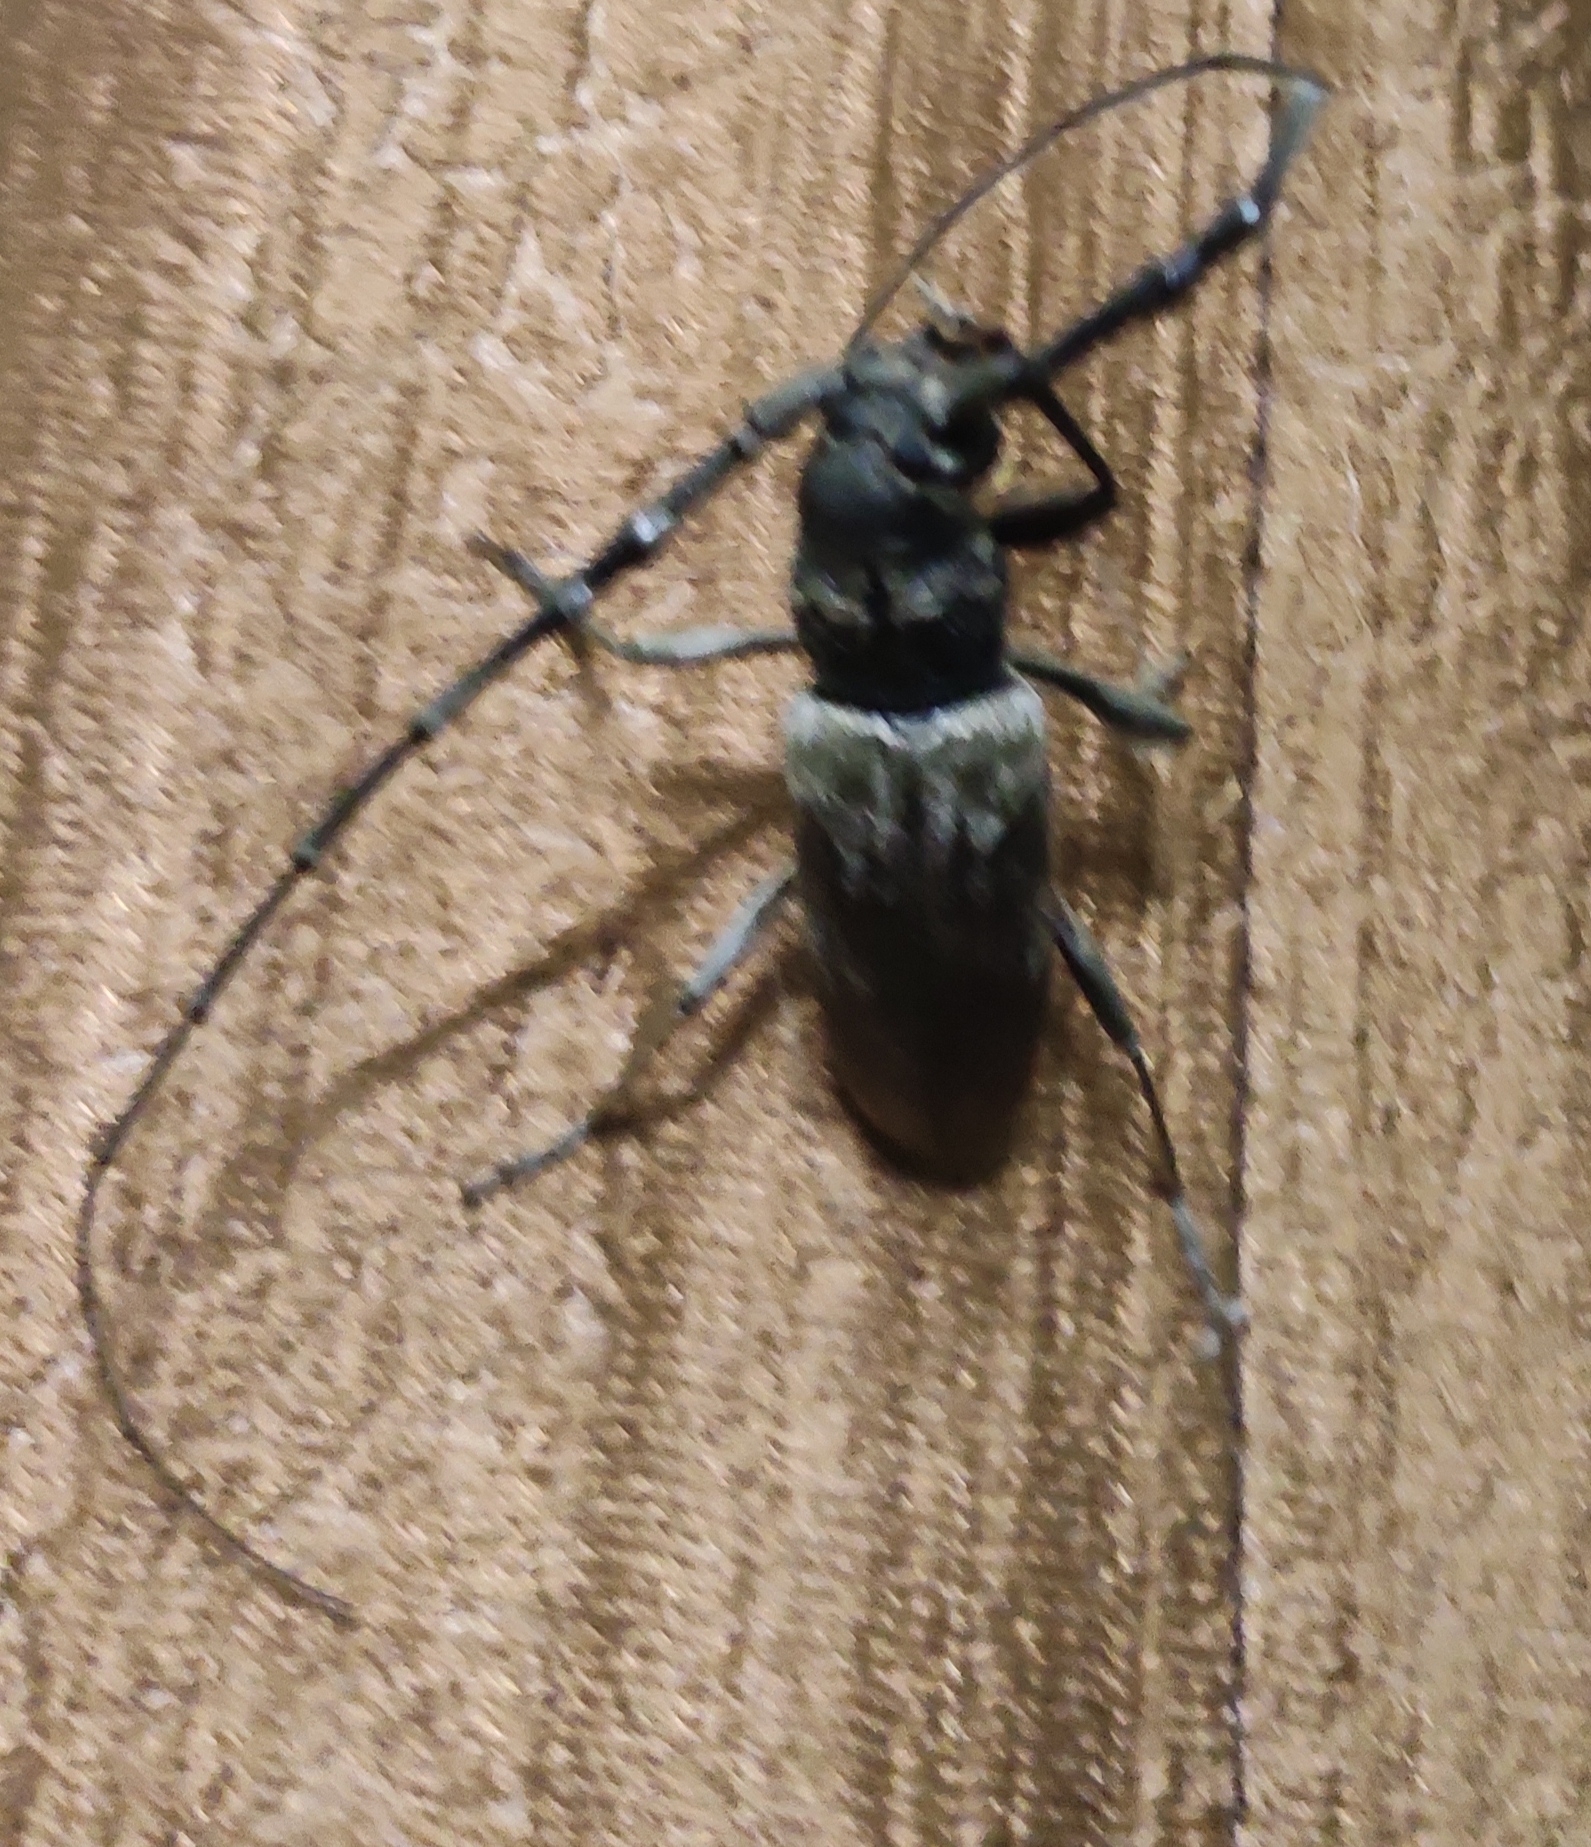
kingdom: Animalia
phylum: Arthropoda
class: Insecta
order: Coleoptera
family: Cerambycidae
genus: Tapinolachnus
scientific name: Tapinolachnus cinereus
